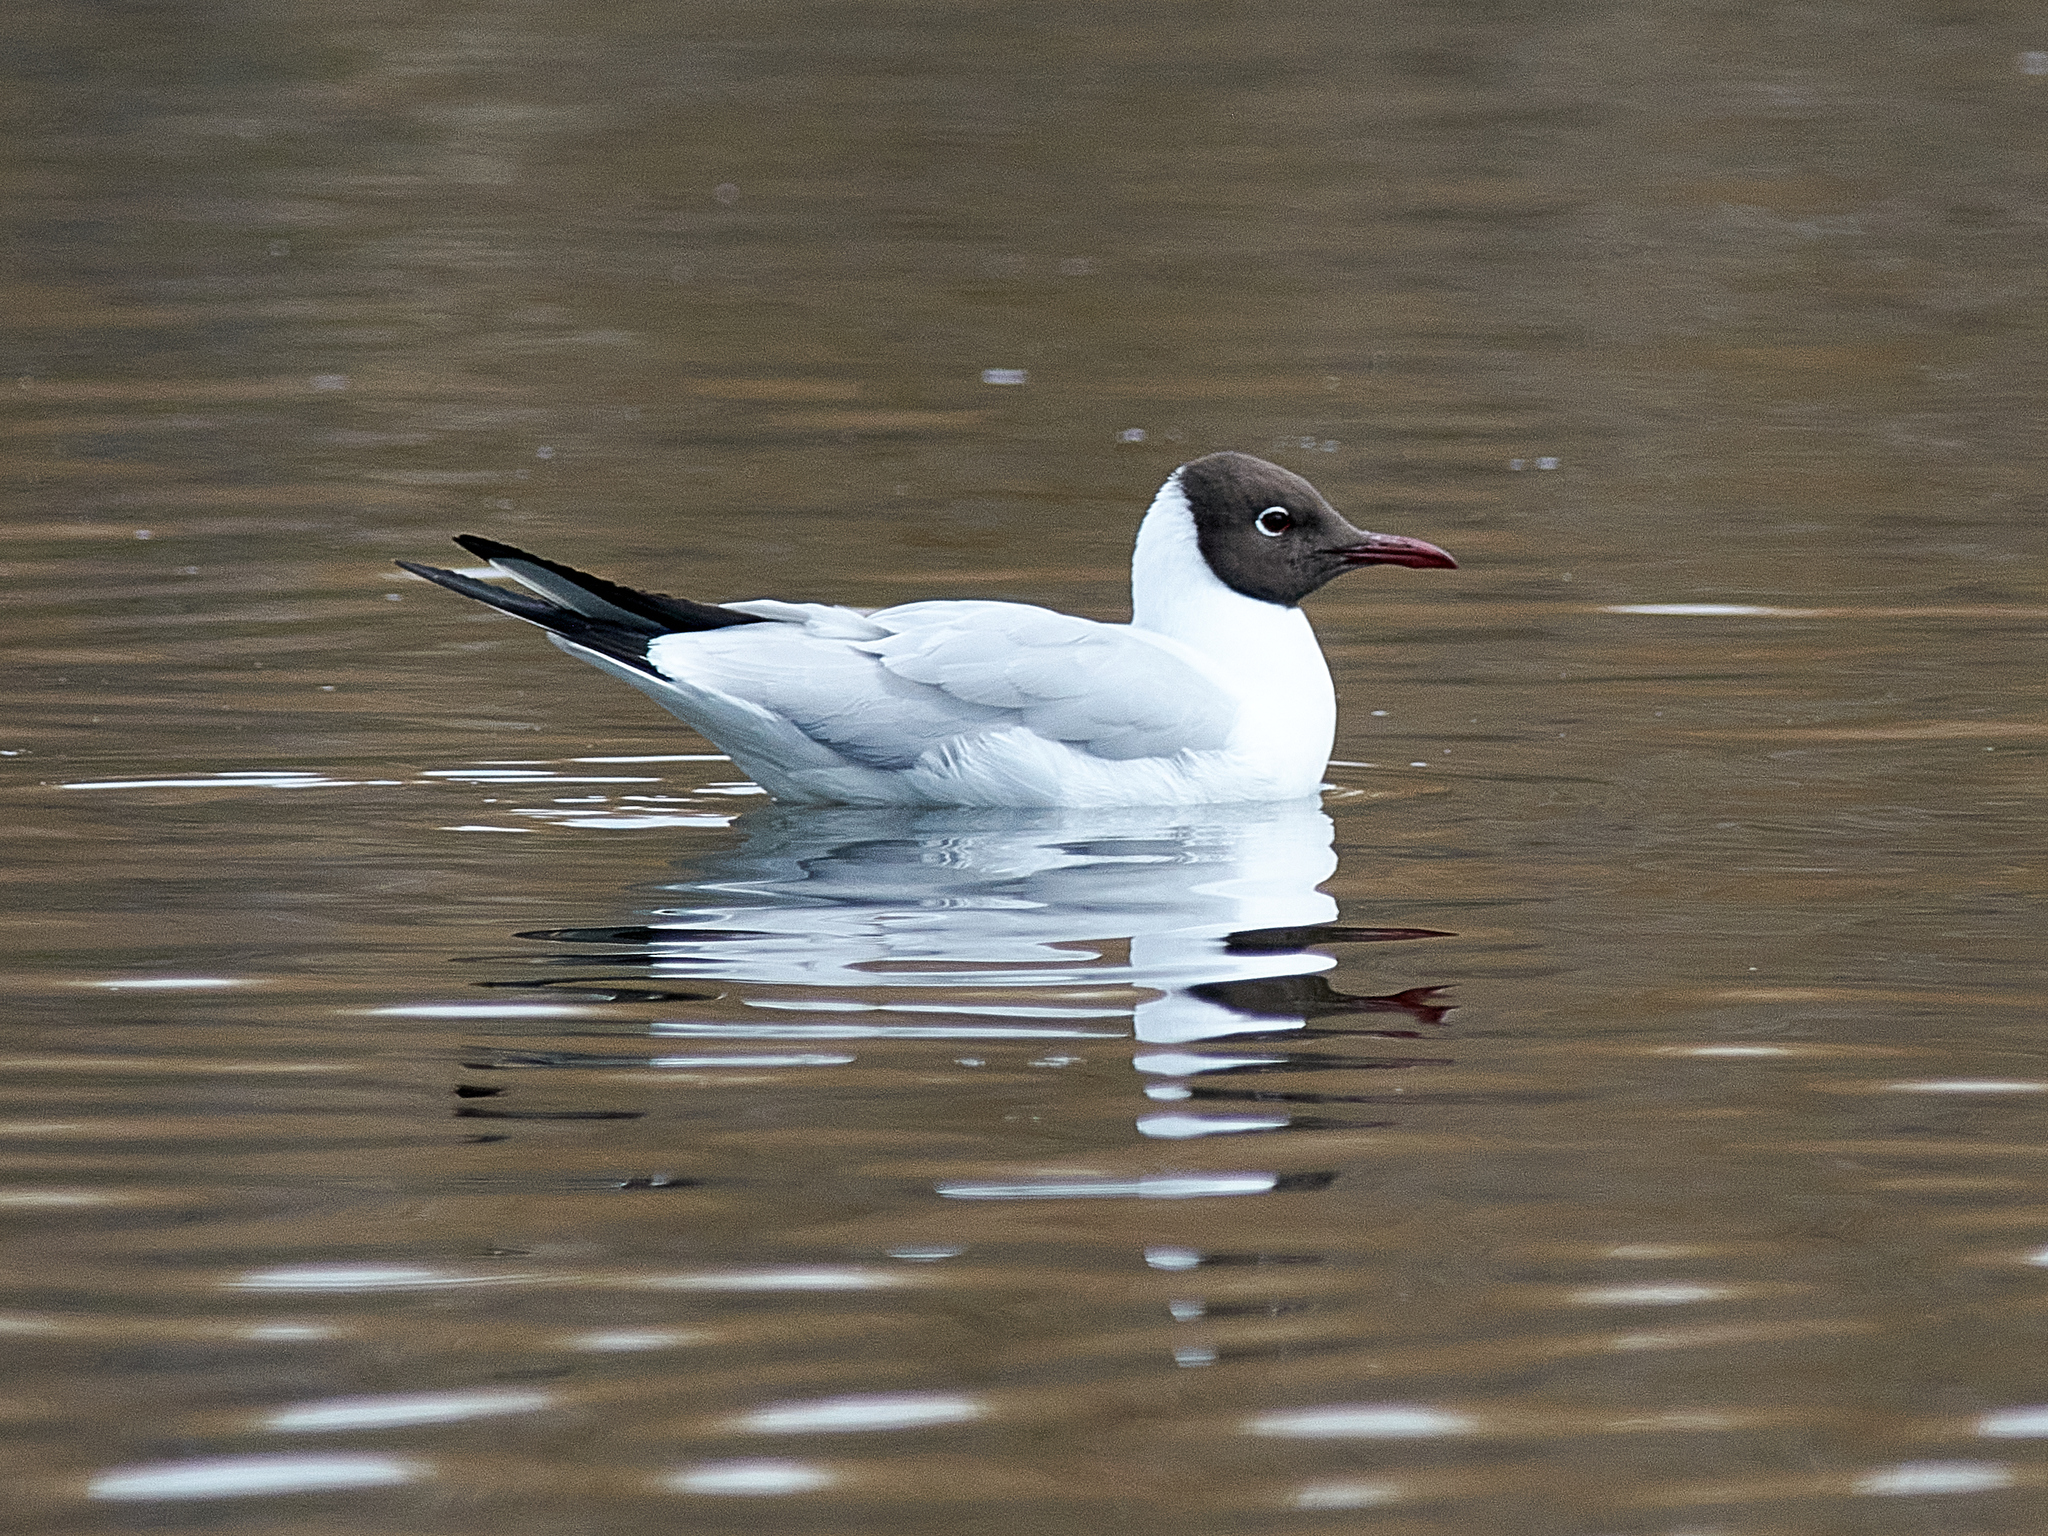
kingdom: Animalia
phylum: Chordata
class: Aves
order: Charadriiformes
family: Laridae
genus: Chroicocephalus
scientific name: Chroicocephalus ridibundus
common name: Black-headed gull
